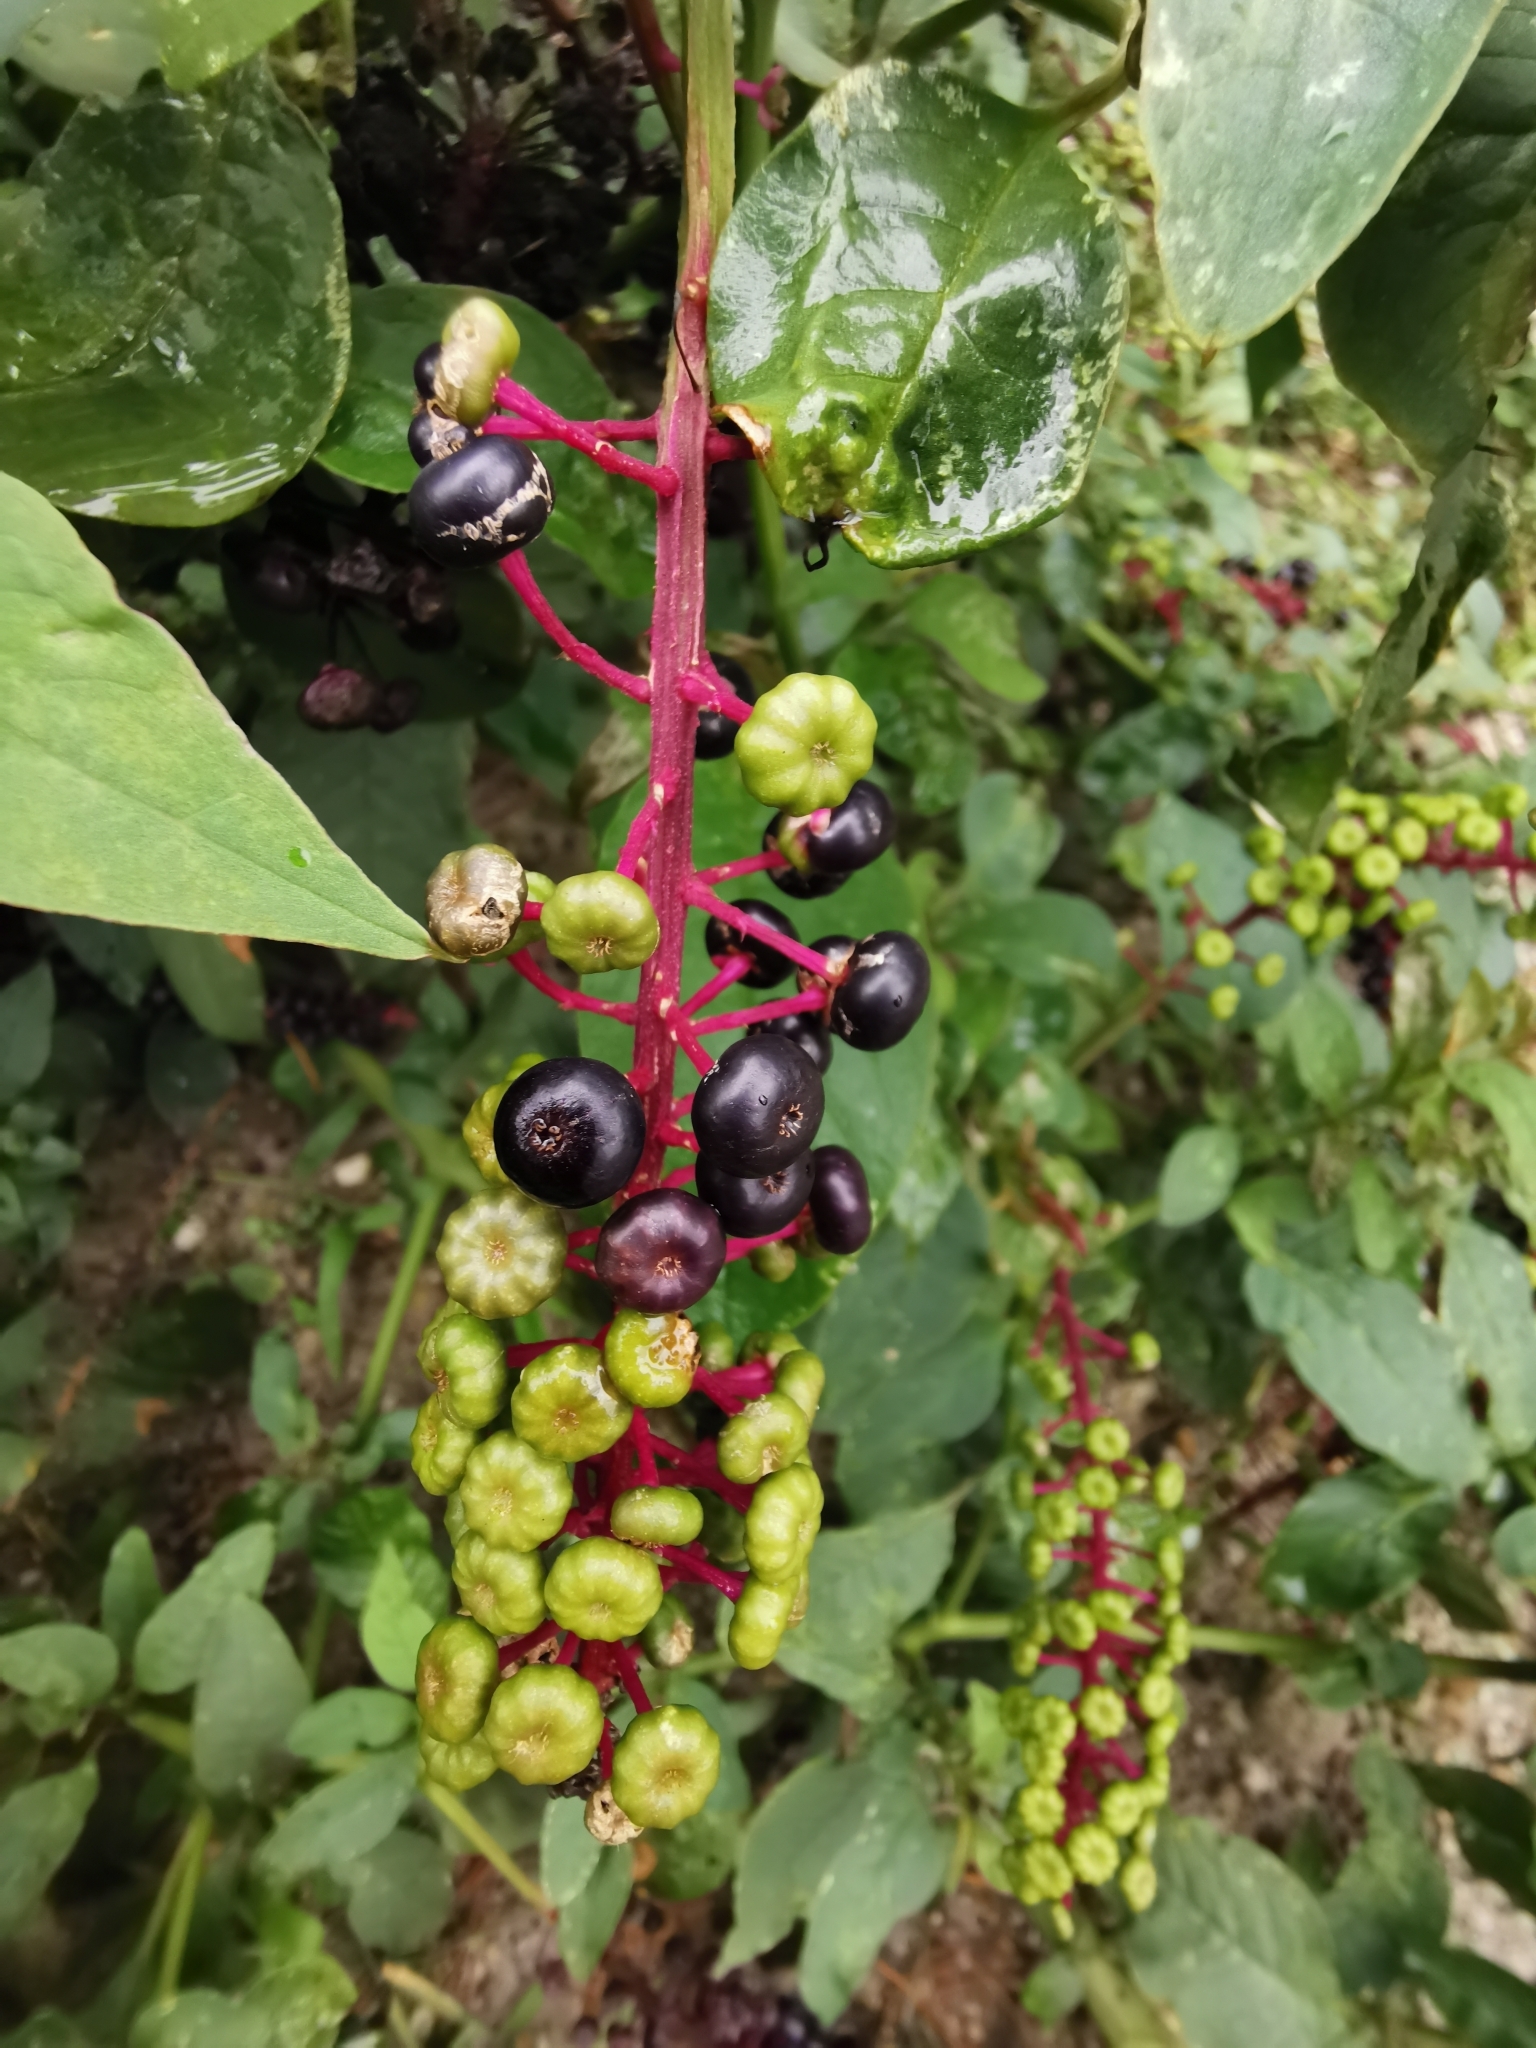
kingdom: Plantae
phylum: Tracheophyta
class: Magnoliopsida
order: Caryophyllales
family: Phytolaccaceae
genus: Phytolacca
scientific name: Phytolacca americana
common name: American pokeweed
